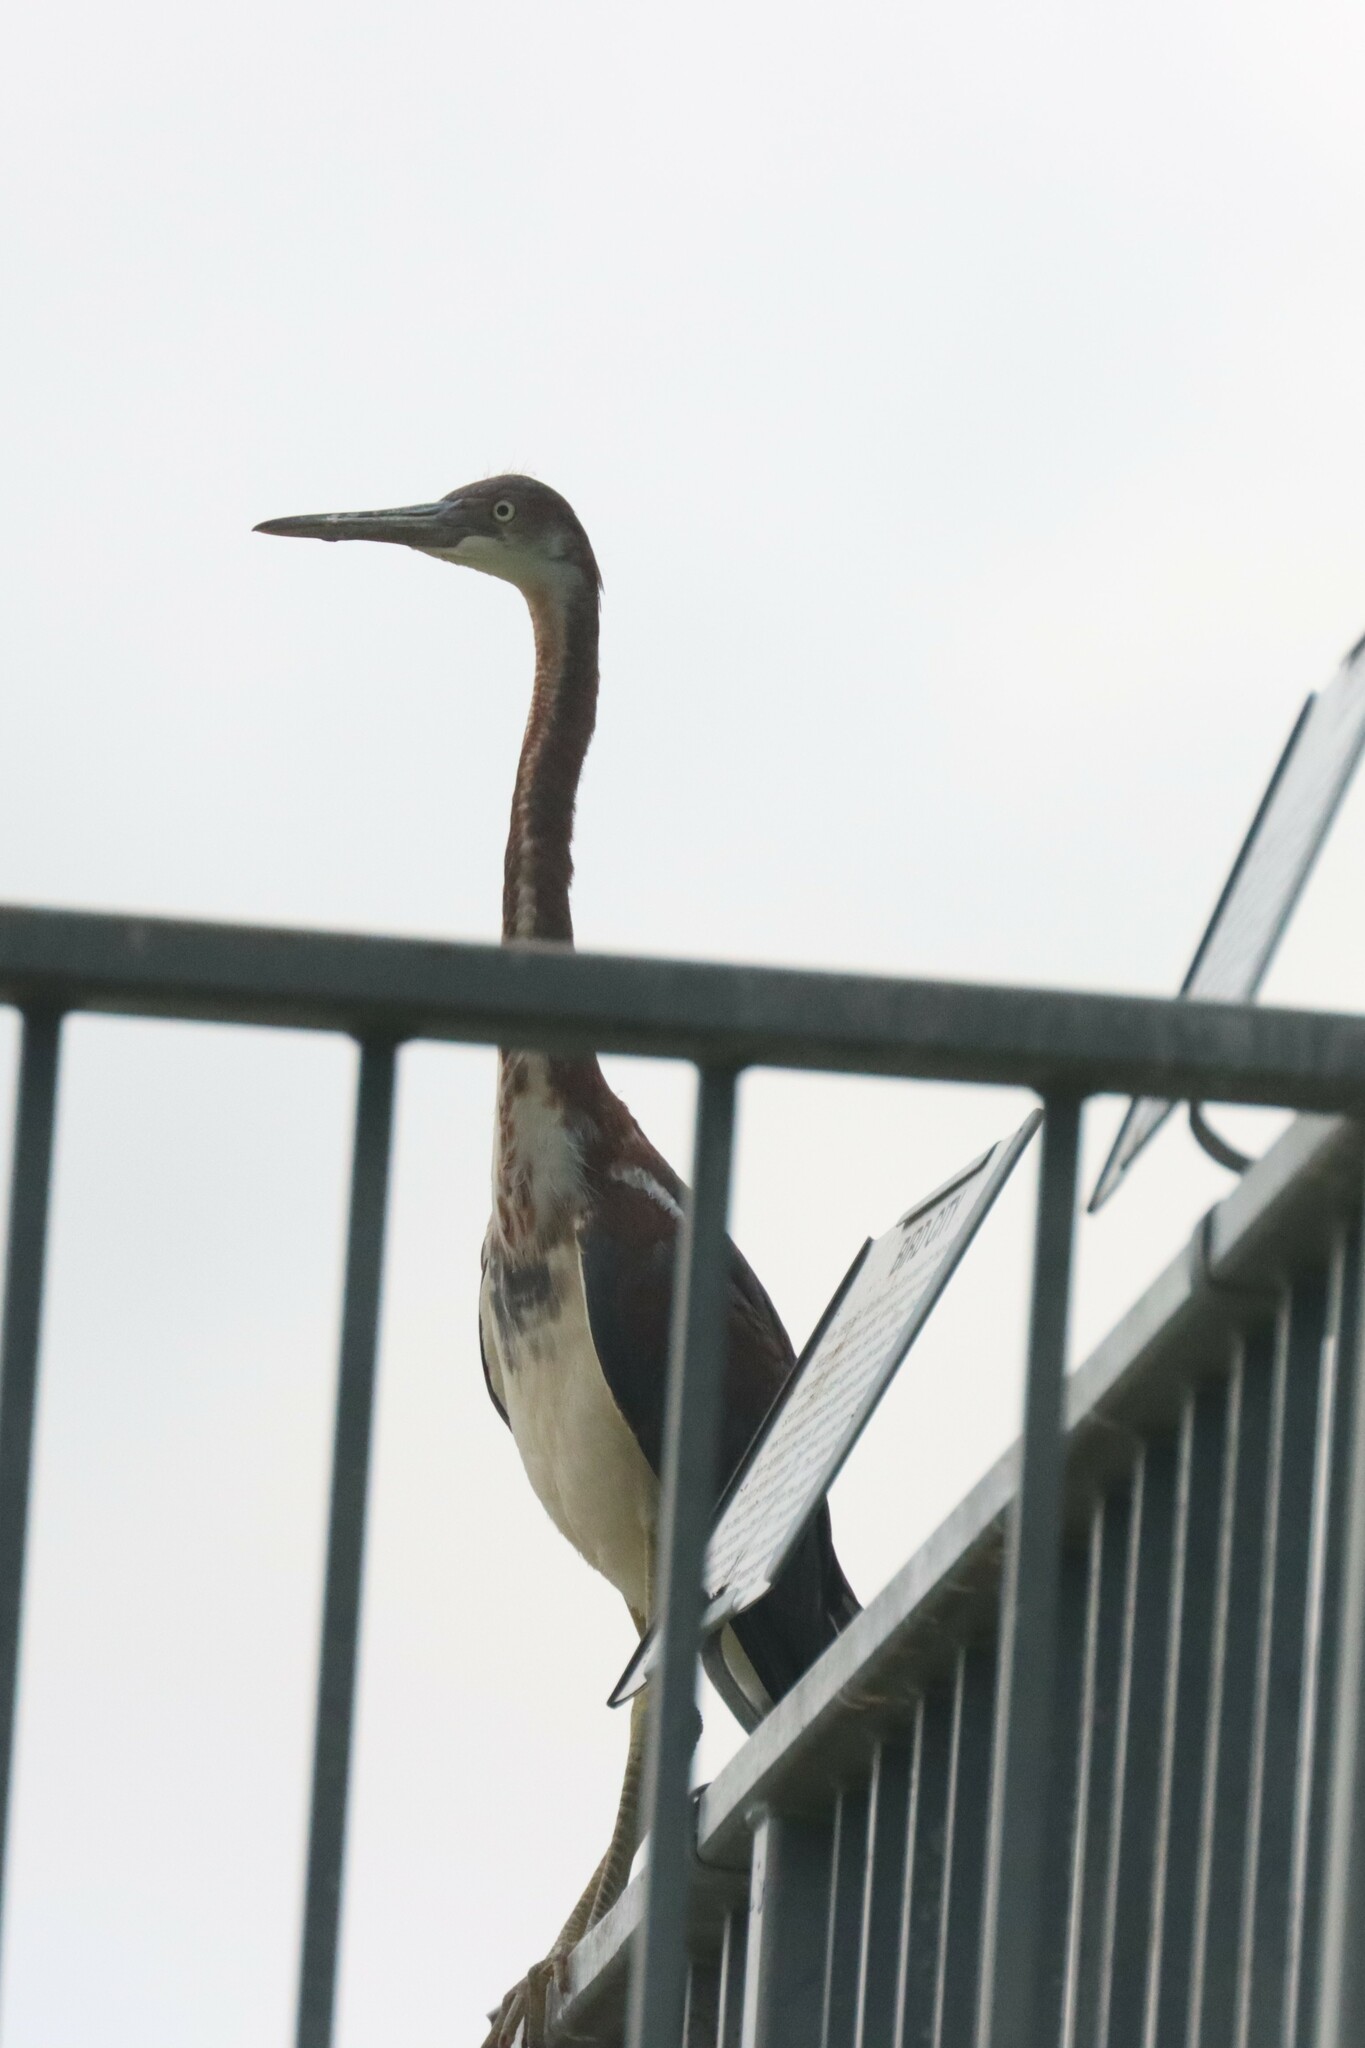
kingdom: Animalia
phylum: Chordata
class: Aves
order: Pelecaniformes
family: Ardeidae
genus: Egretta
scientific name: Egretta tricolor
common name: Tricolored heron
